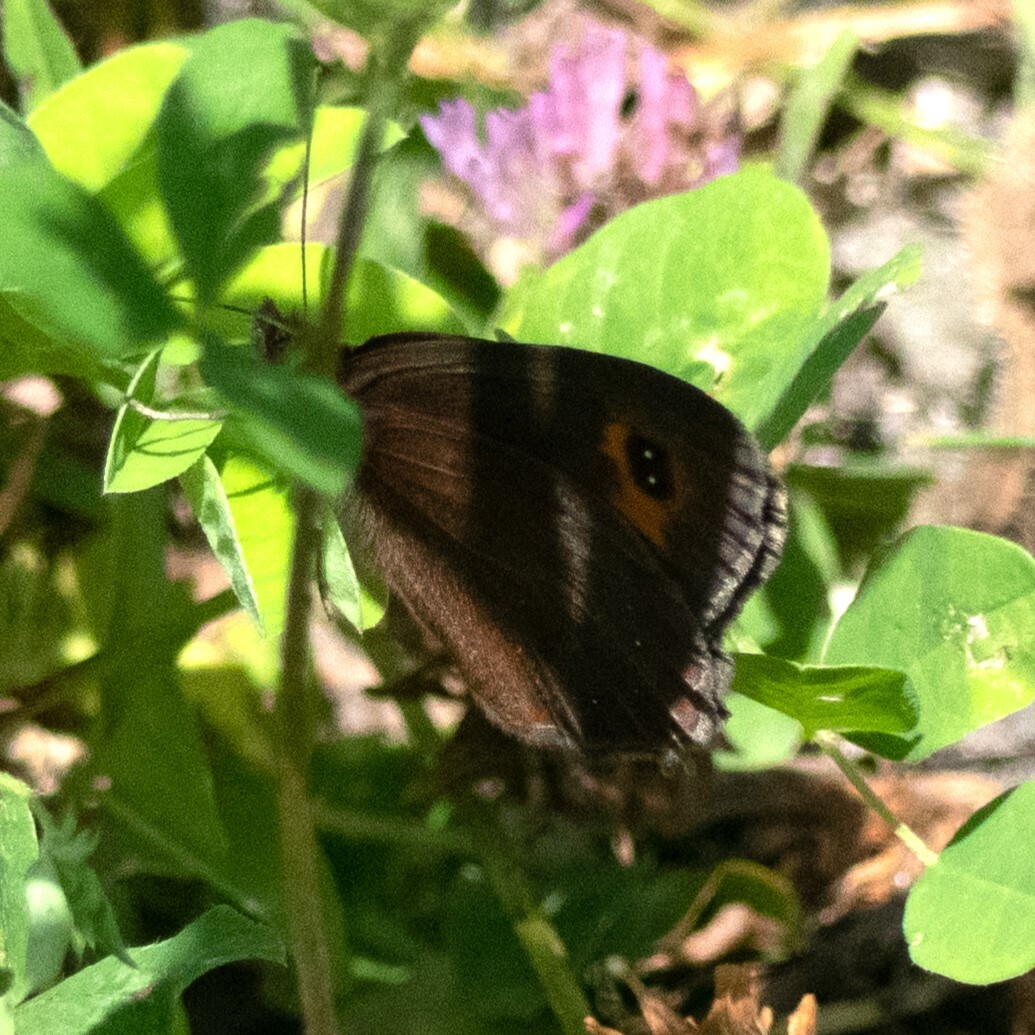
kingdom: Animalia
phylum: Arthropoda
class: Insecta
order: Lepidoptera
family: Nymphalidae
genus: Erebia
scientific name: Erebia aethiops
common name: Scotch argus
